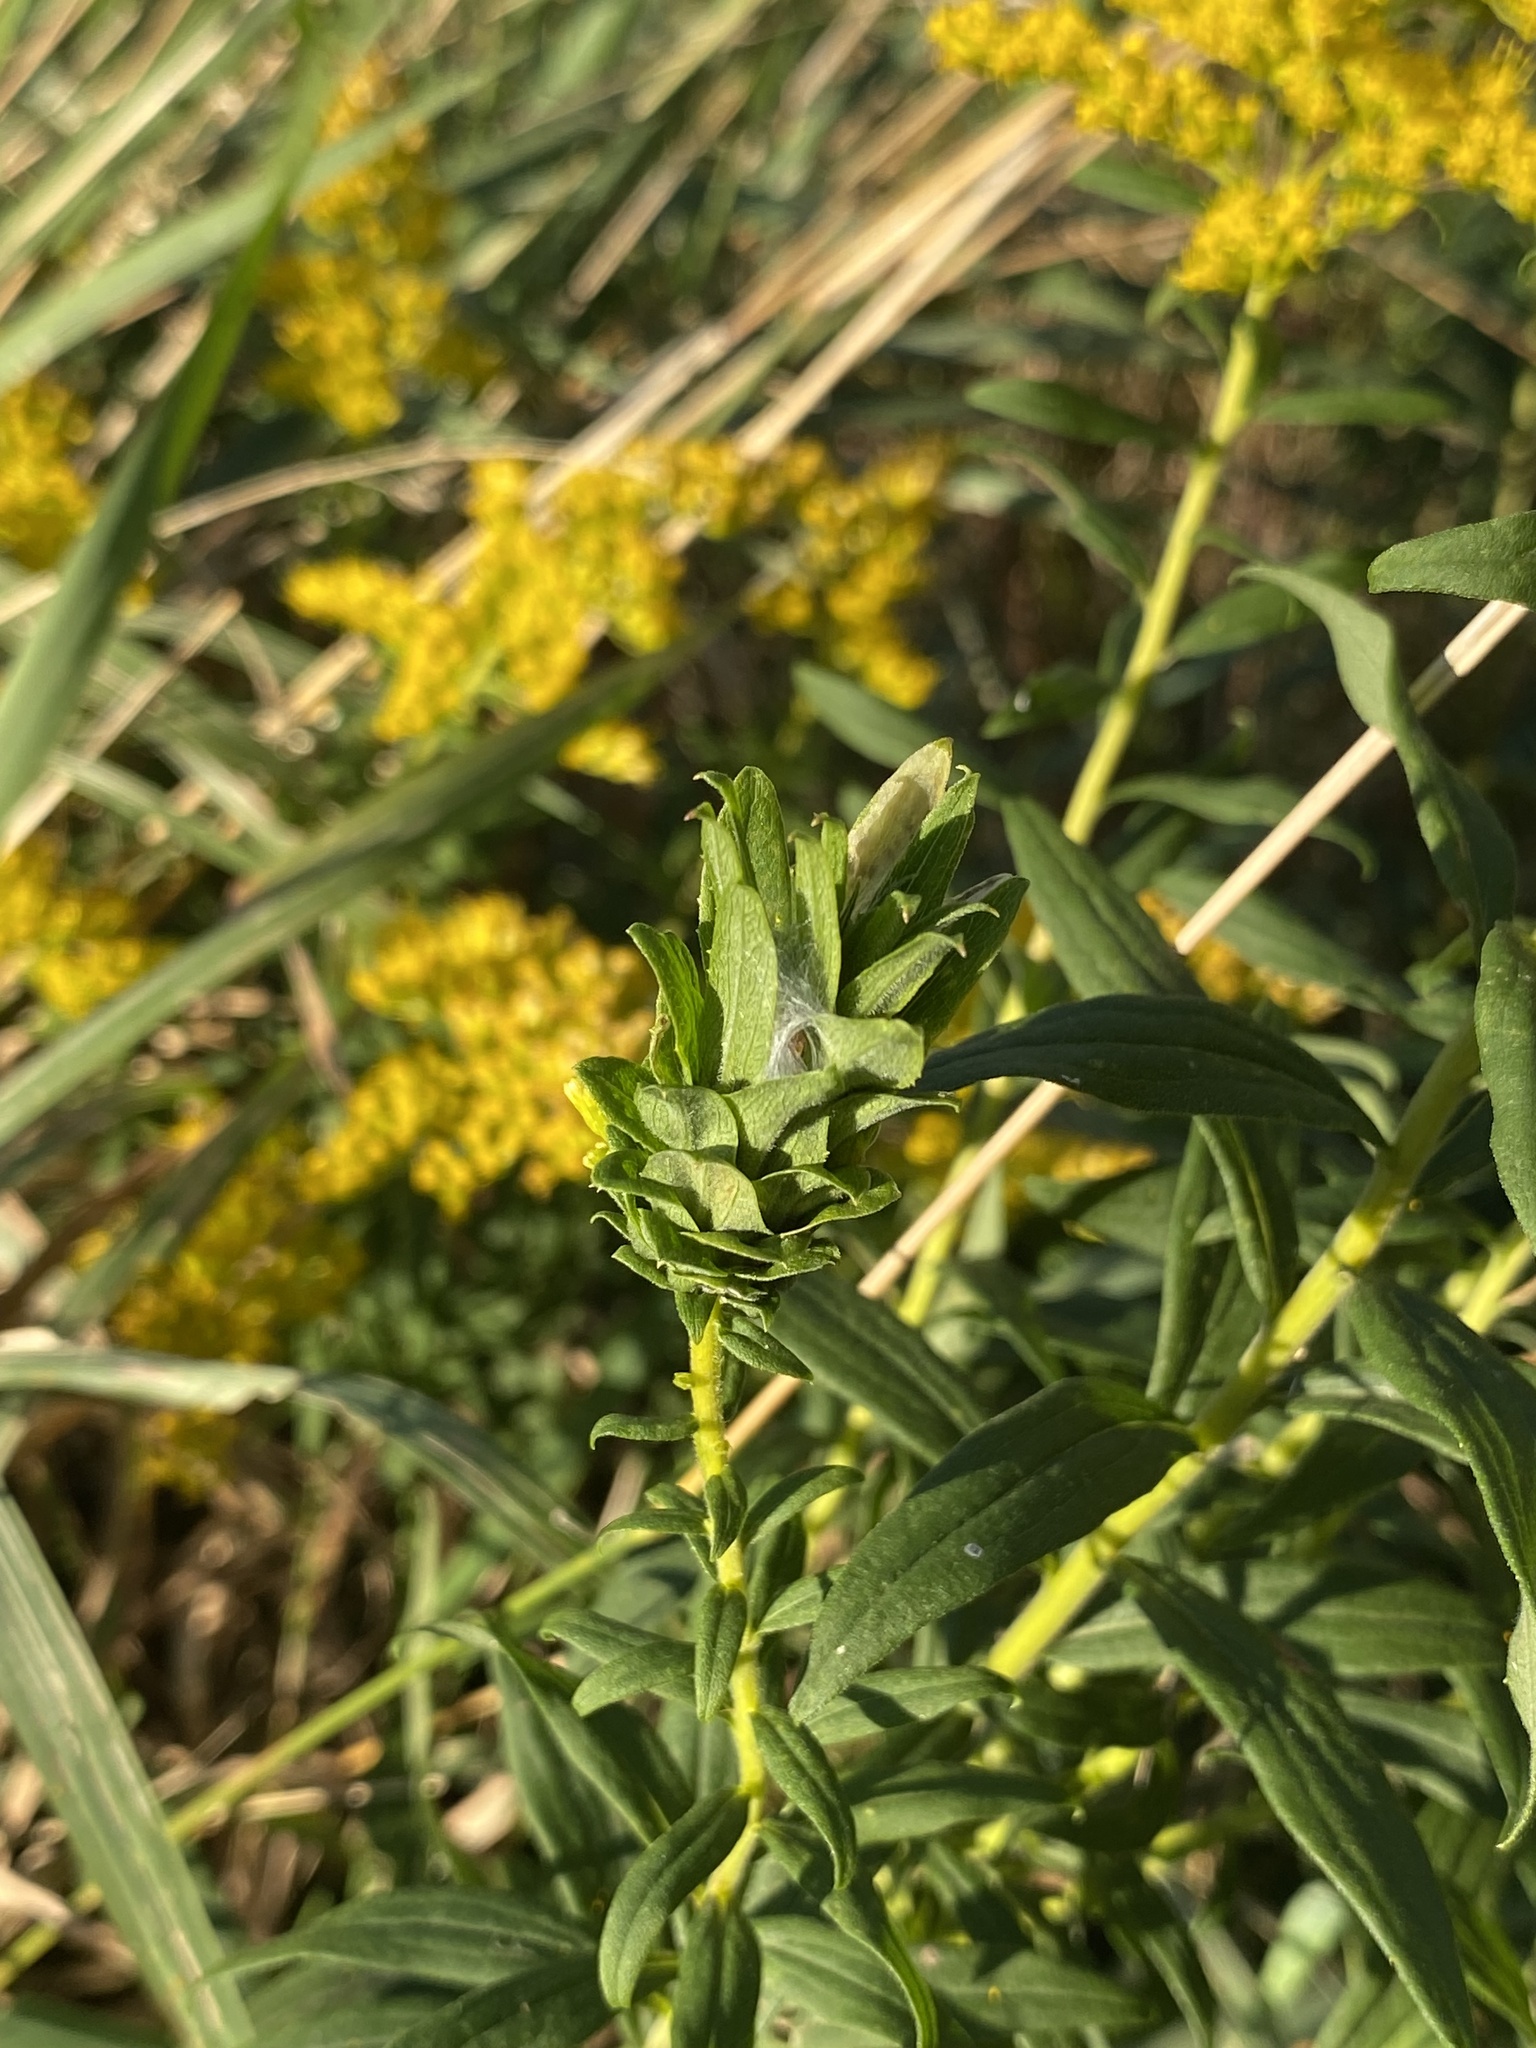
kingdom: Animalia
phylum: Arthropoda
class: Insecta
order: Diptera
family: Cecidomyiidae
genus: Rhopalomyia
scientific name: Rhopalomyia solidaginis
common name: Goldenrod bunch gall midge
